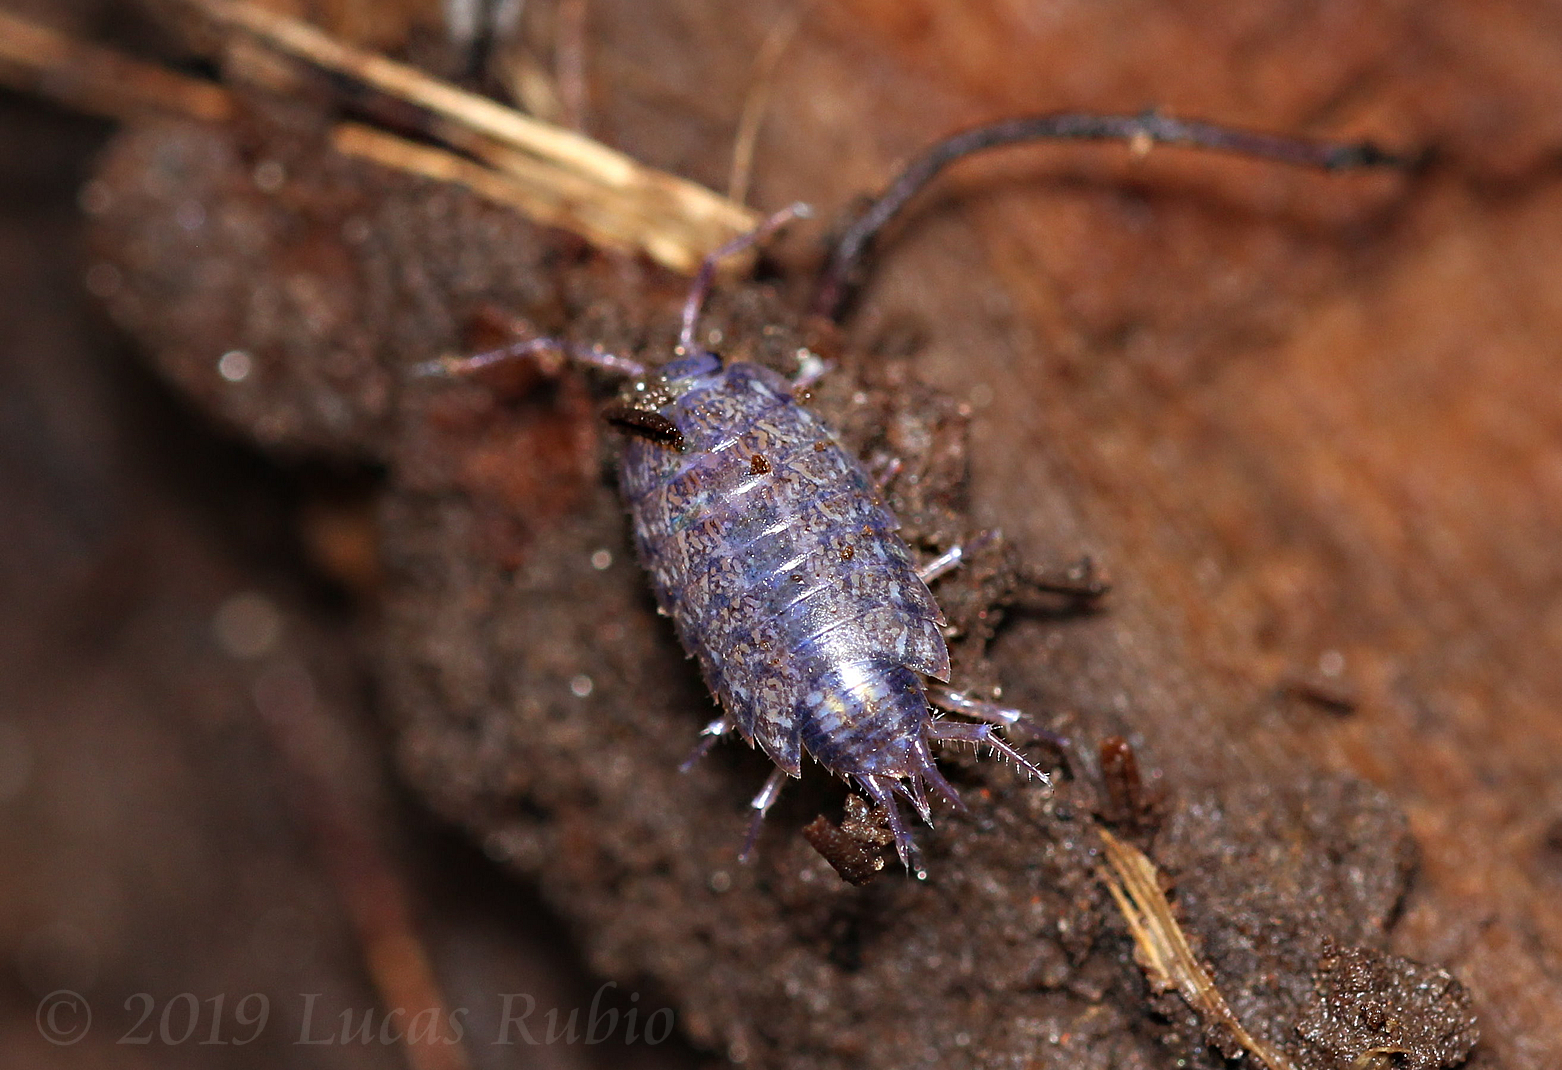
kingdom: Viruses
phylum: Nucleocytoviricota
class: Megaviricetes
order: Pimascovirales
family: Iridoviridae
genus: Iridovirus
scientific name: Iridovirus Invertebrate iridescent virus 31
